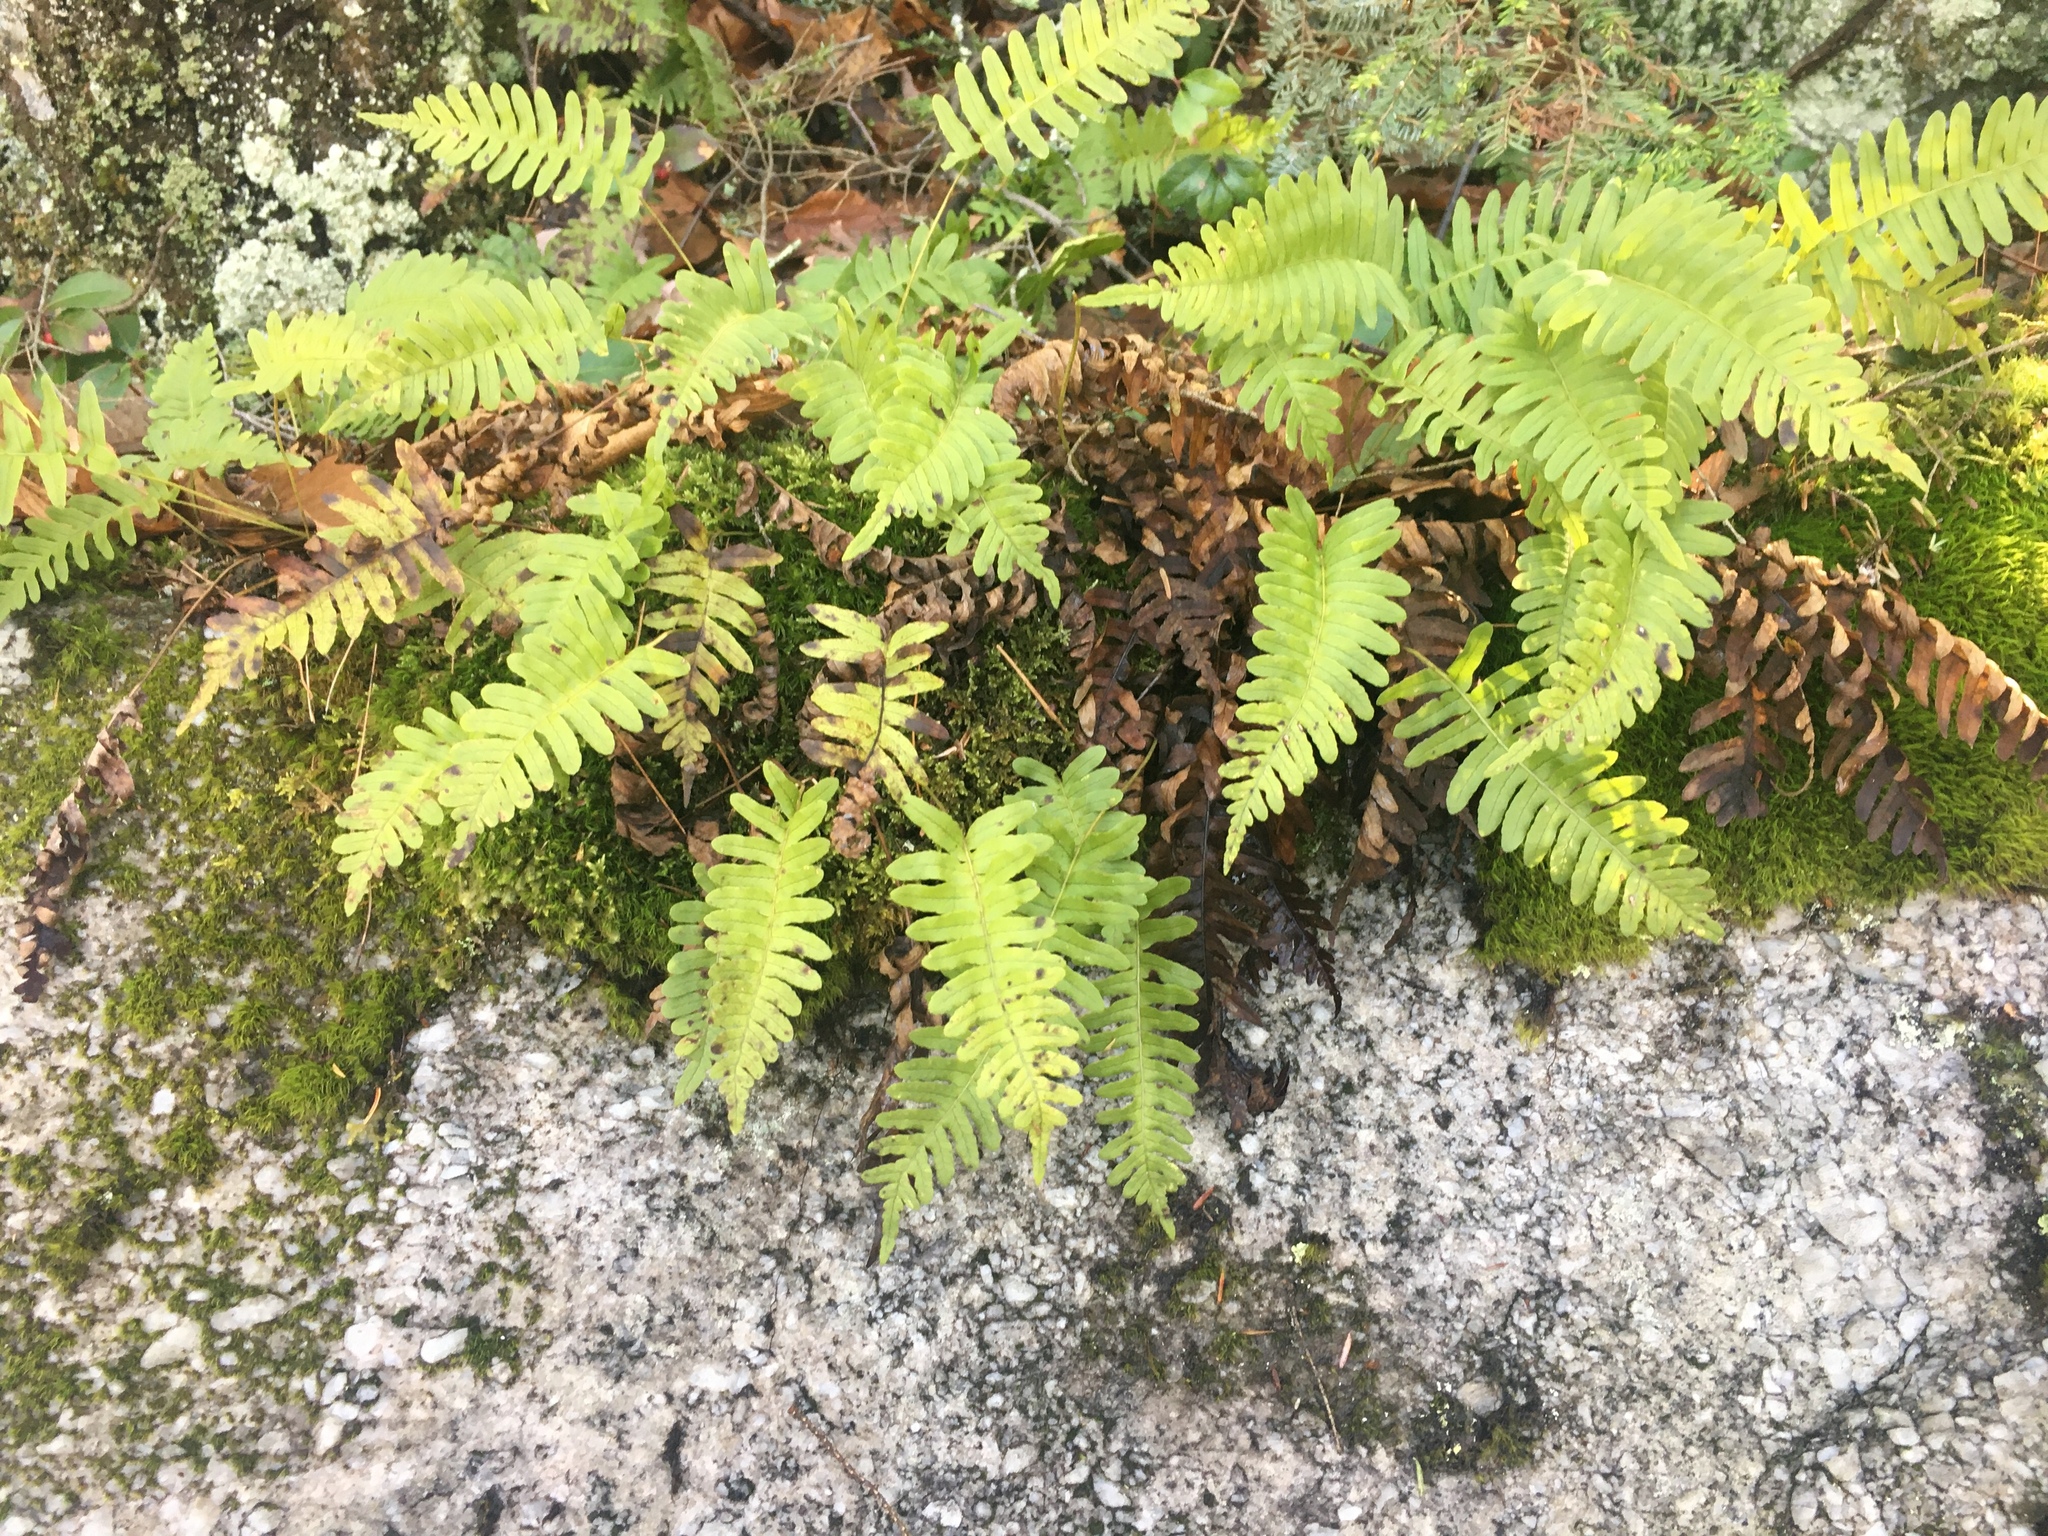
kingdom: Plantae
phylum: Tracheophyta
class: Polypodiopsida
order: Polypodiales
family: Polypodiaceae
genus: Polypodium
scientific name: Polypodium virginianum
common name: American wall fern
